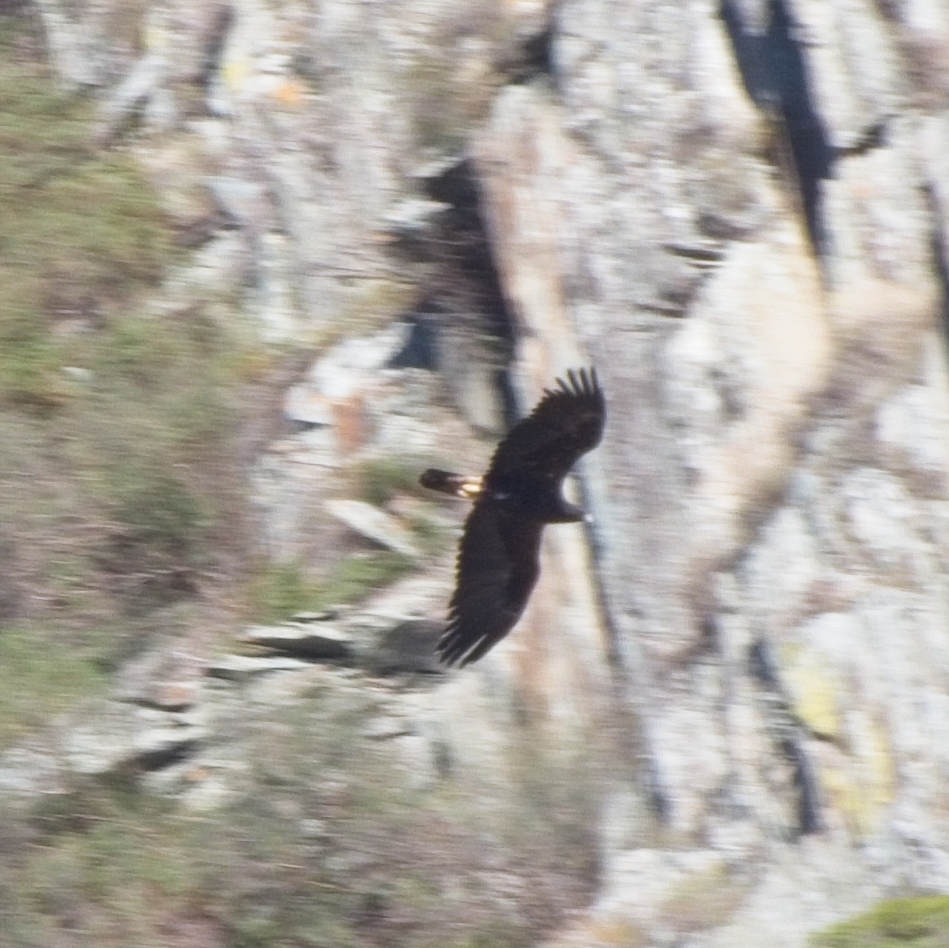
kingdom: Animalia
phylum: Chordata
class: Aves
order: Accipitriformes
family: Accipitridae
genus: Aquila
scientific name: Aquila clanga
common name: Greater spotted eagle
